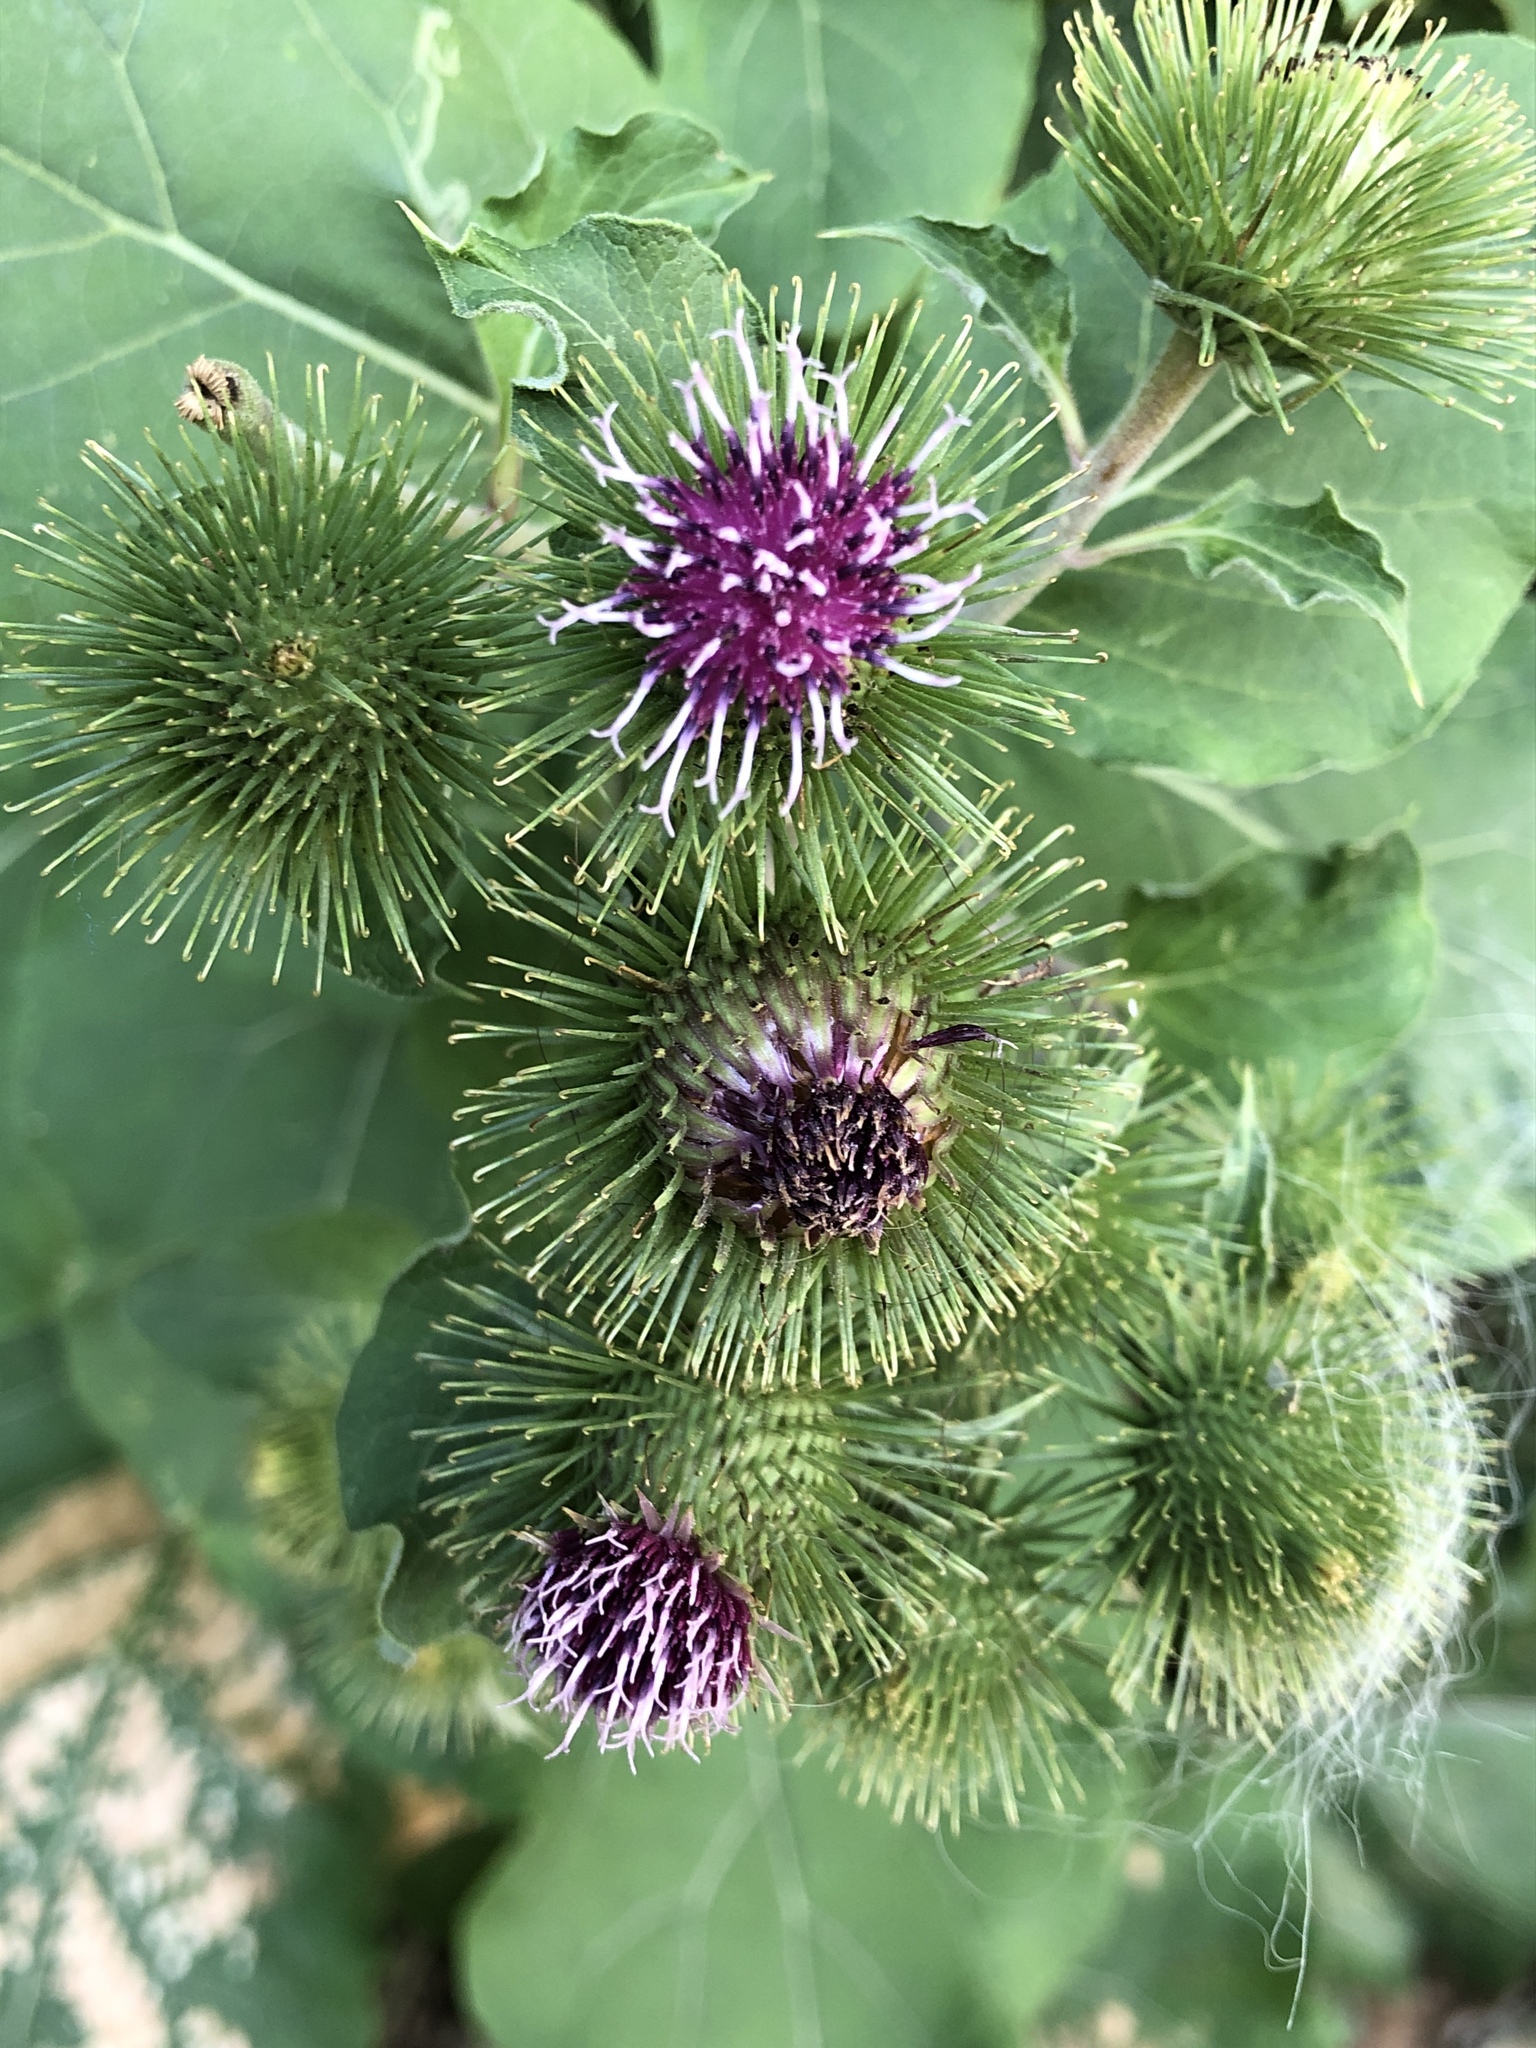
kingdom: Plantae
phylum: Tracheophyta
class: Magnoliopsida
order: Asterales
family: Asteraceae
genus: Arctium
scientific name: Arctium lappa
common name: Greater burdock
